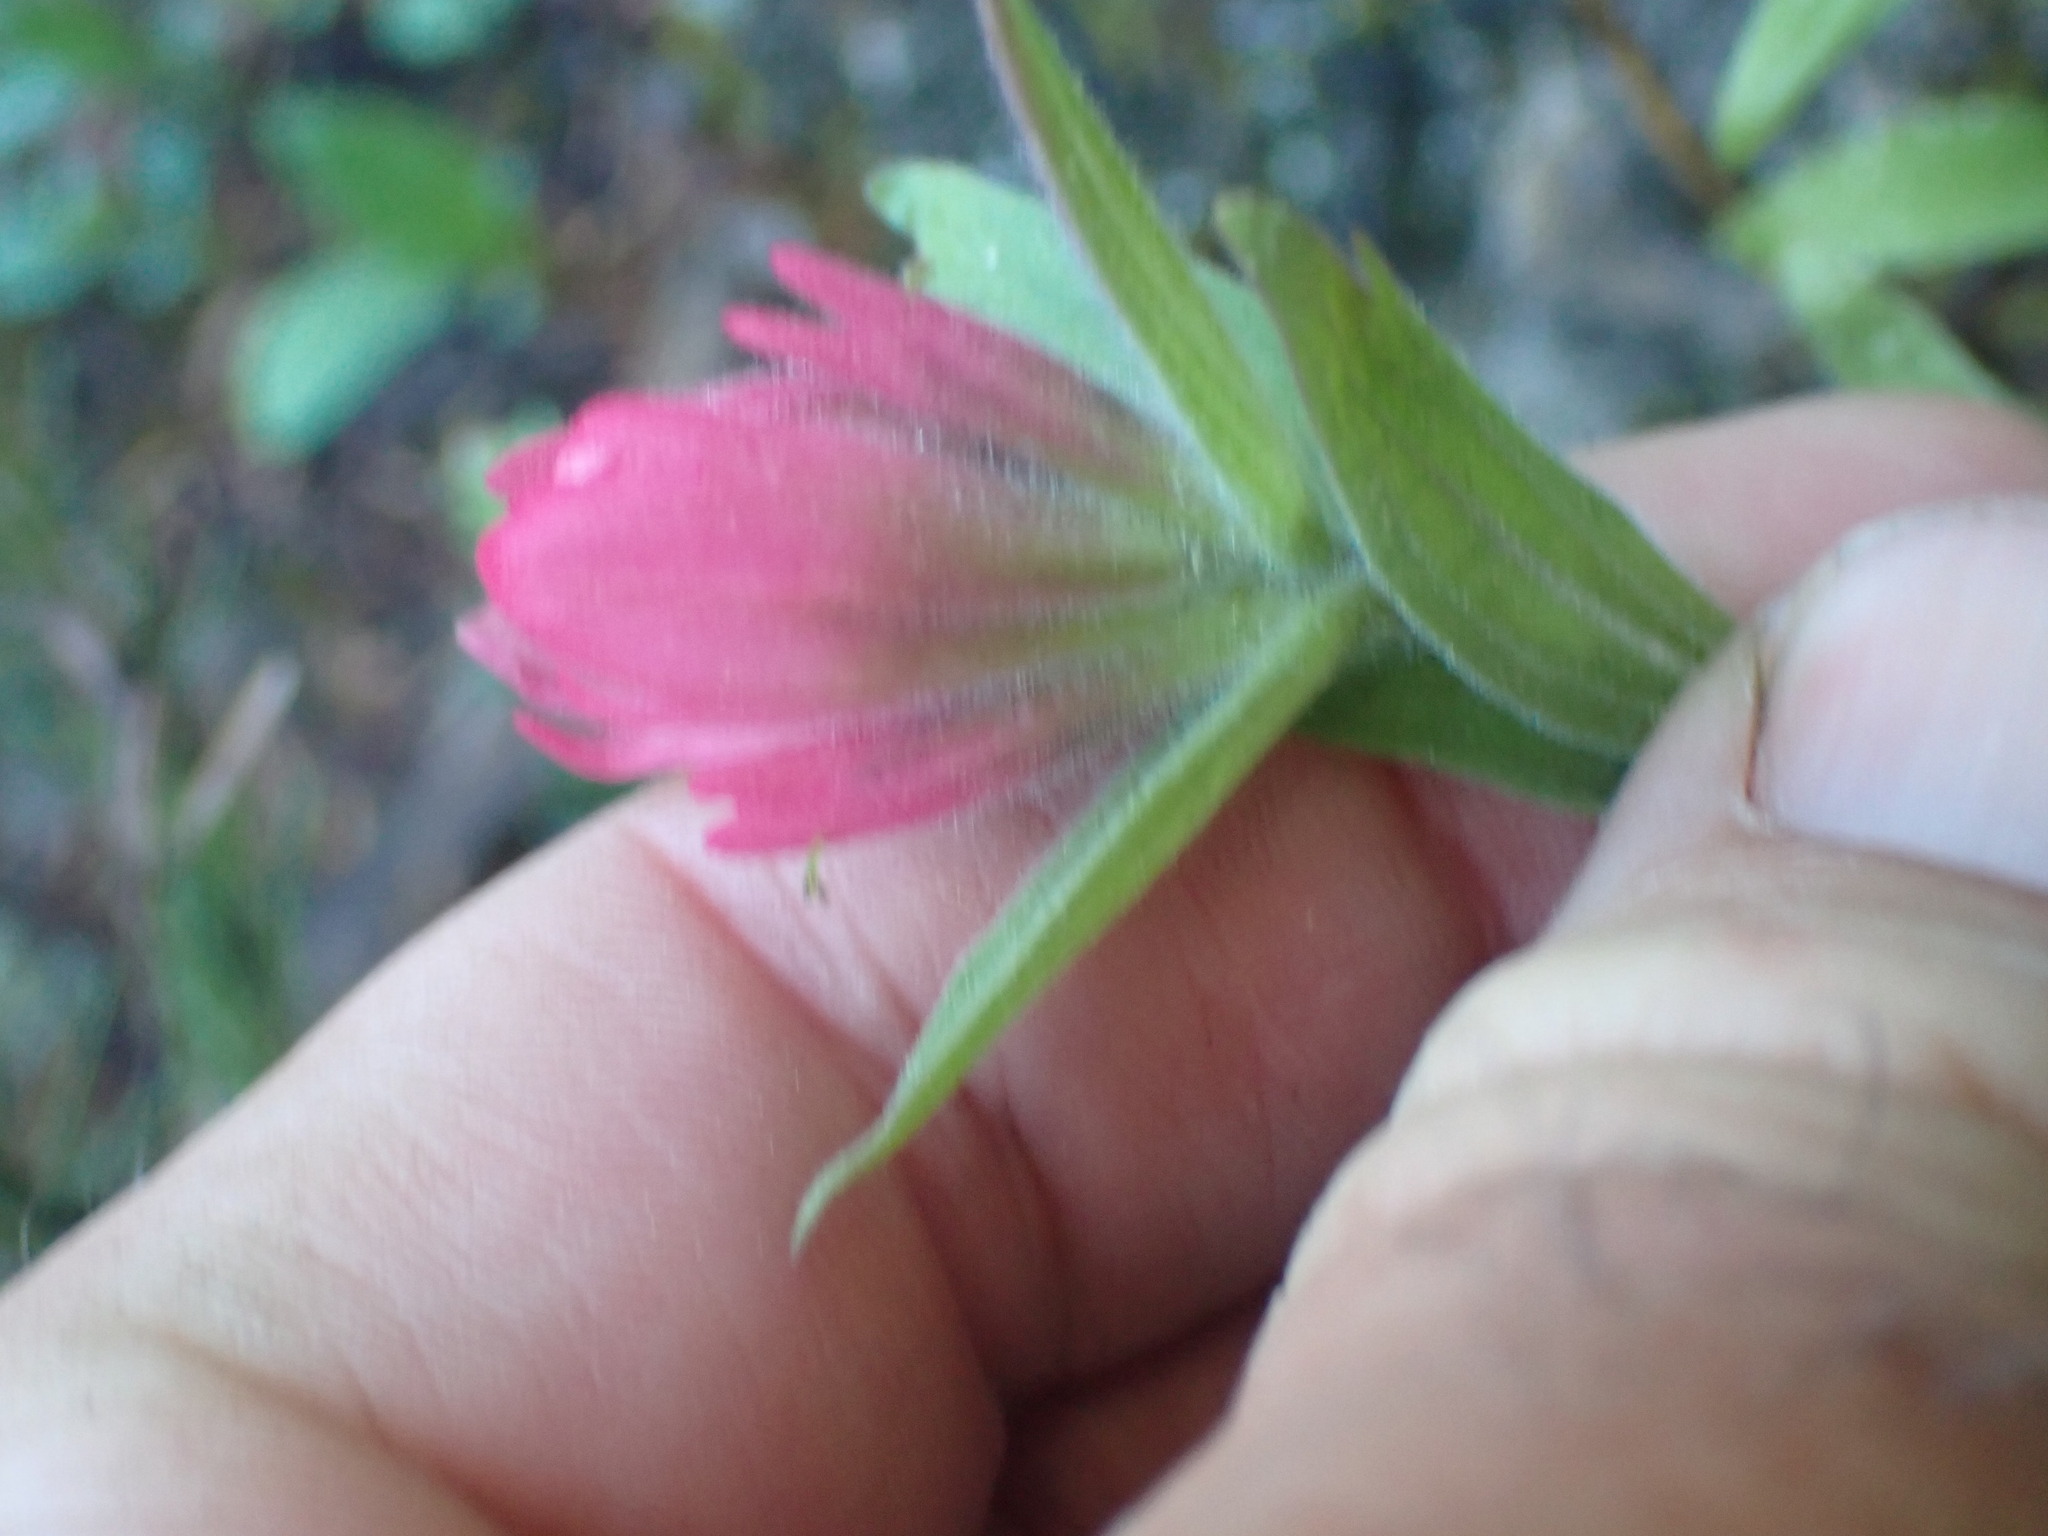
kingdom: Plantae
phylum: Tracheophyta
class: Magnoliopsida
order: Lamiales
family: Orobanchaceae
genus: Castilleja
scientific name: Castilleja rhexifolia
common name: Rocky mountain paintbrush
